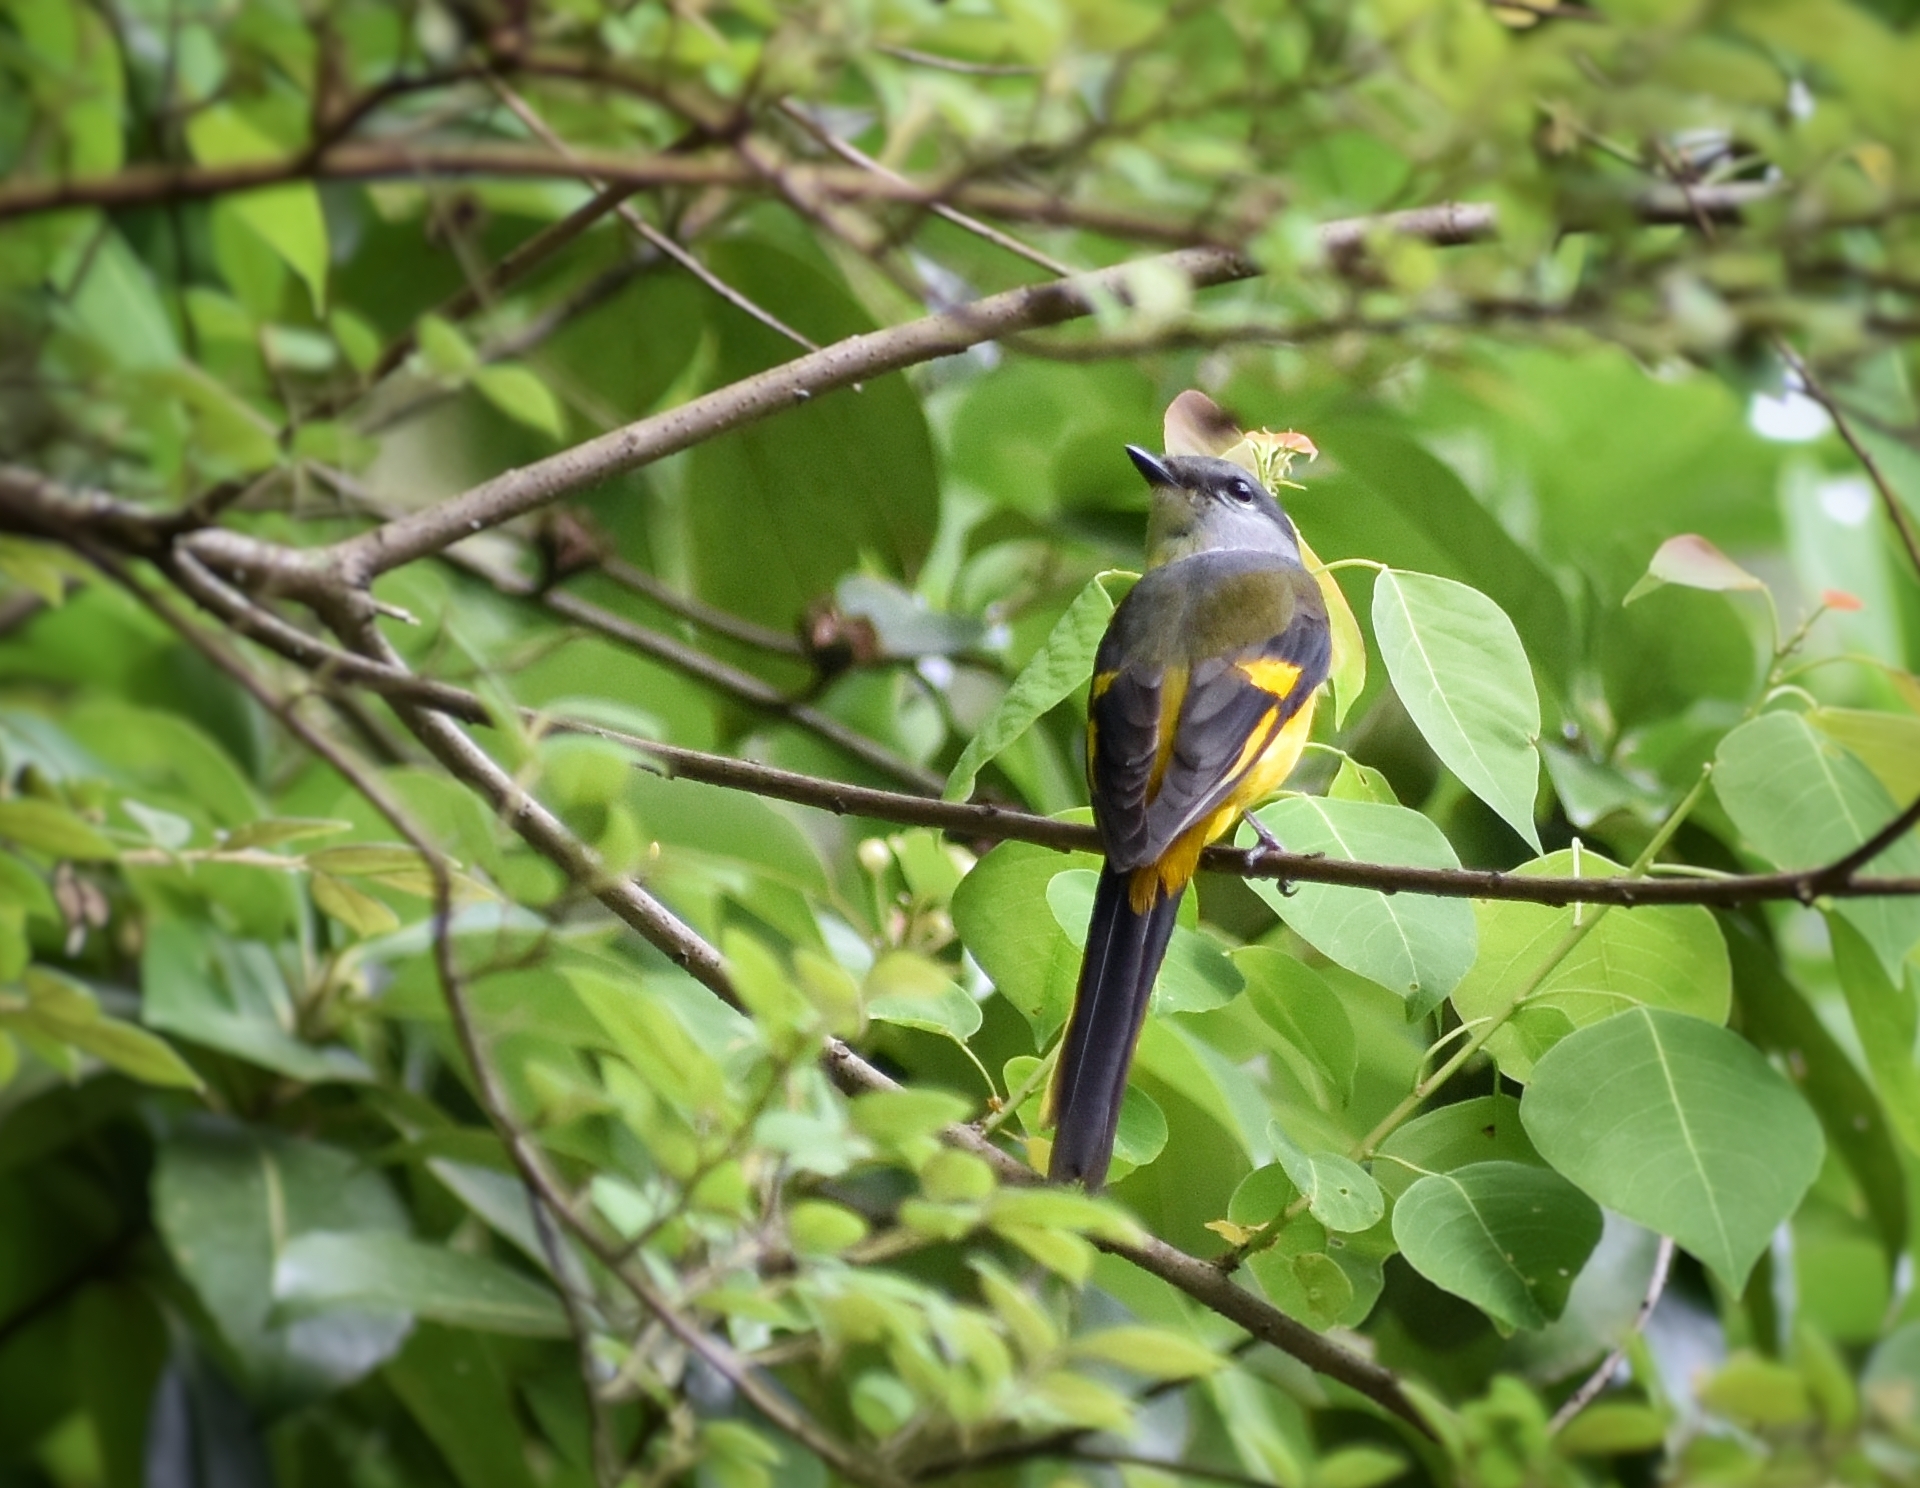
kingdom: Animalia
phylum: Chordata
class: Aves
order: Passeriformes
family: Campephagidae
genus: Pericrocotus
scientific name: Pericrocotus solaris
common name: Grey-chinned minivet
